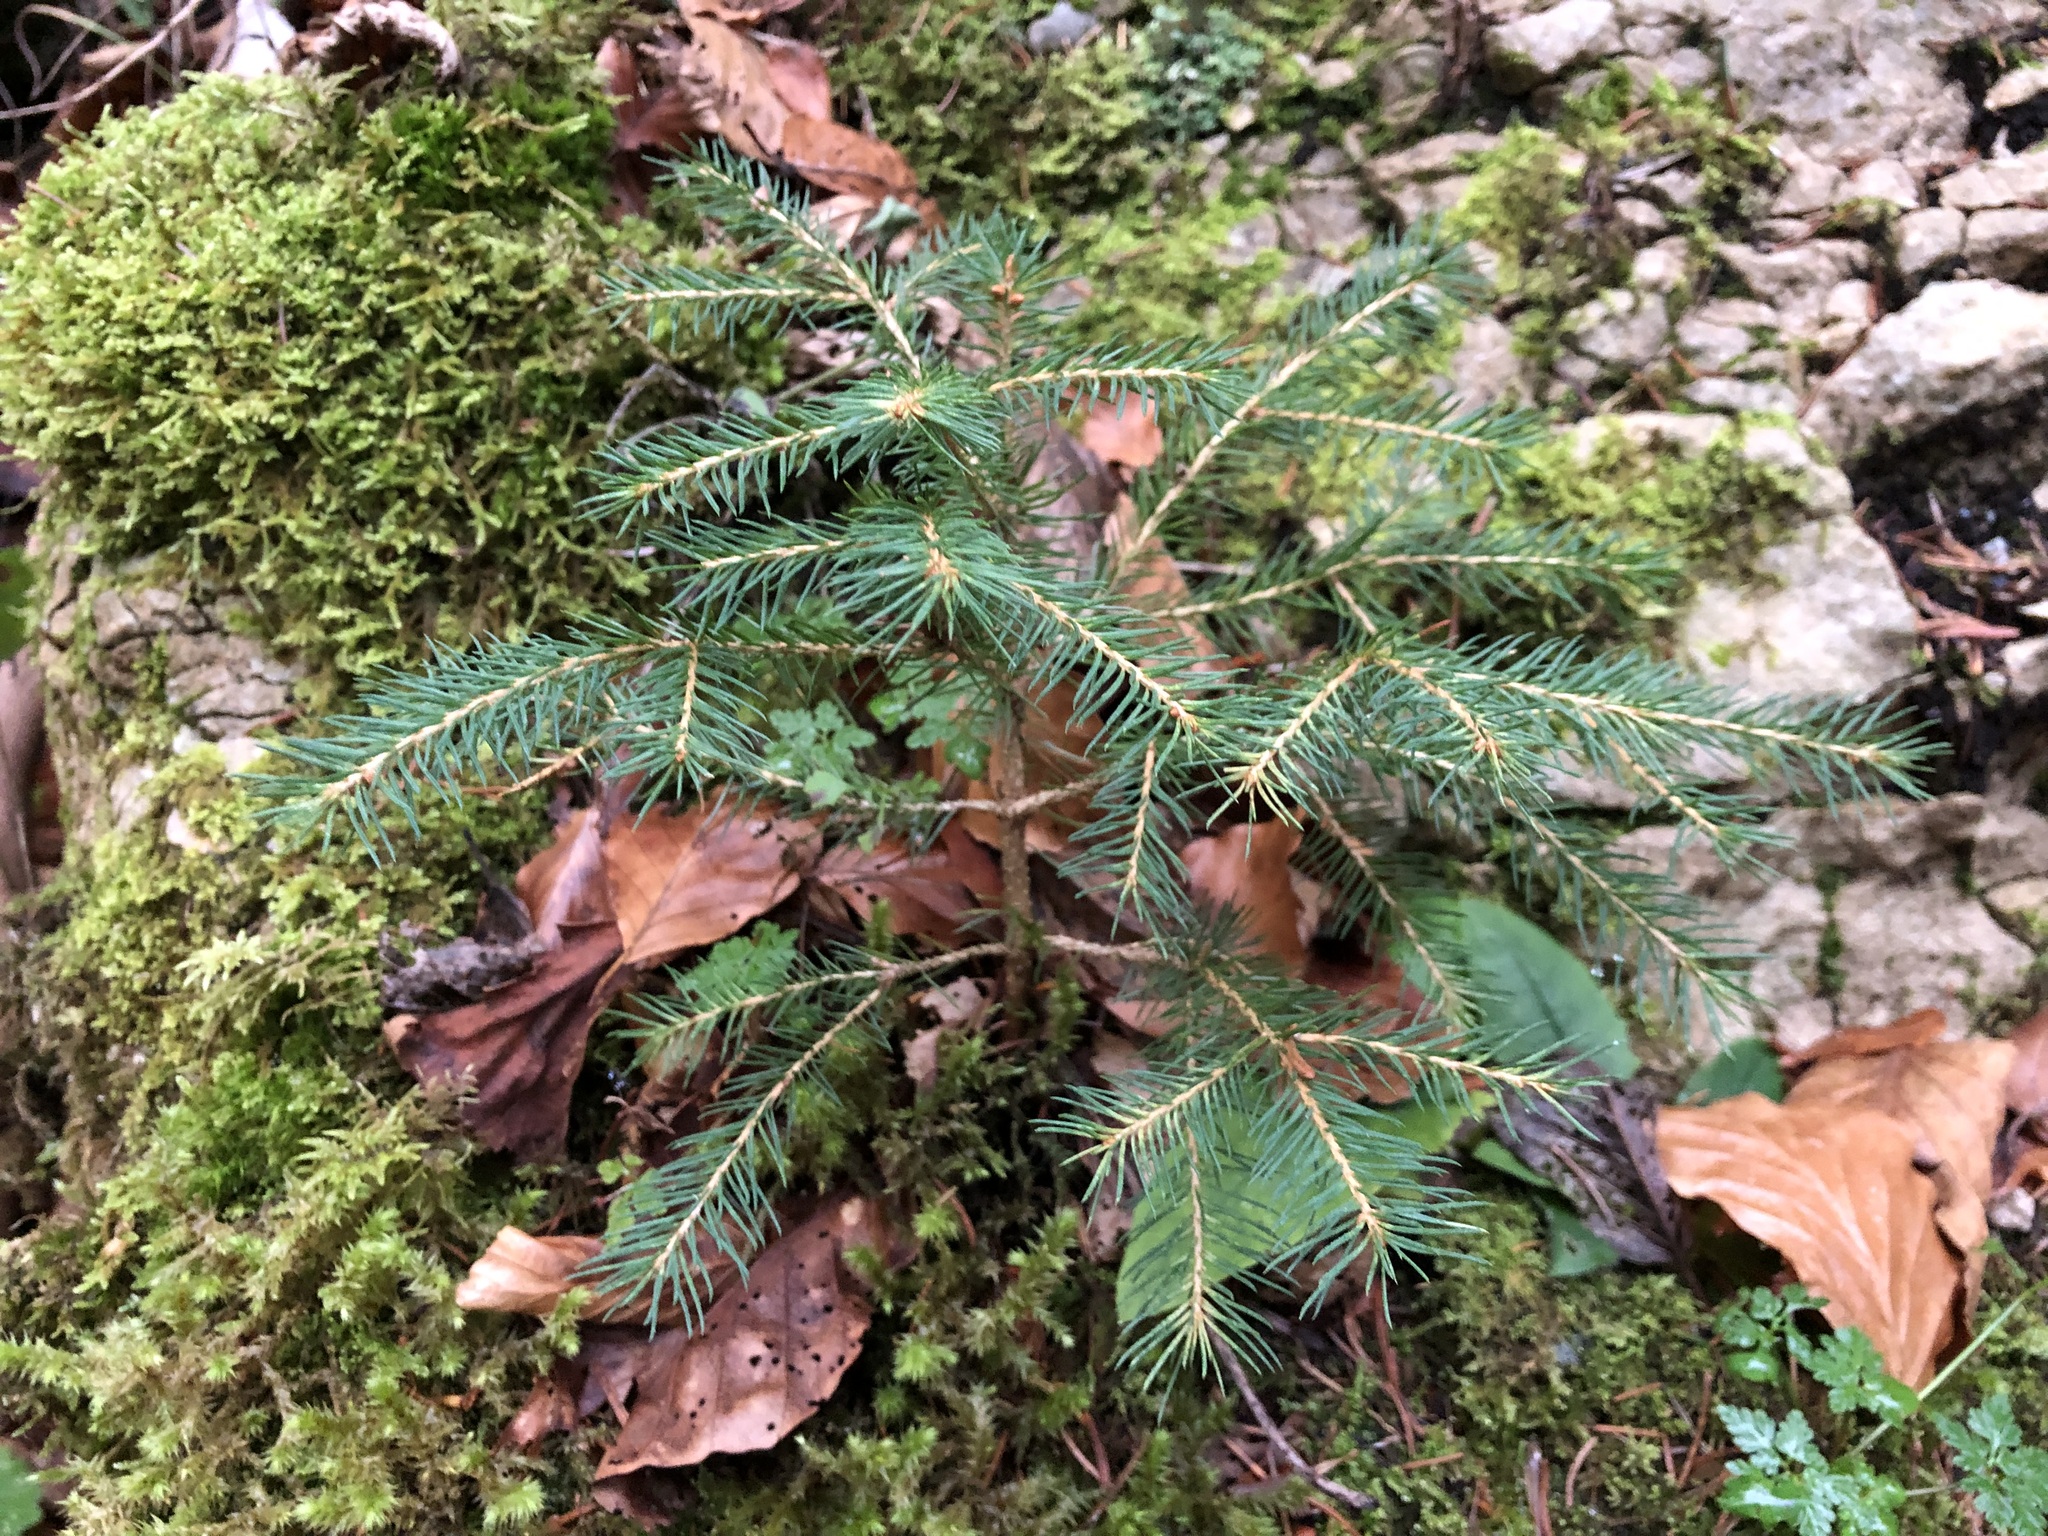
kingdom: Plantae
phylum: Tracheophyta
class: Pinopsida
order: Pinales
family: Pinaceae
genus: Picea
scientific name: Picea abies
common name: Norway spruce
